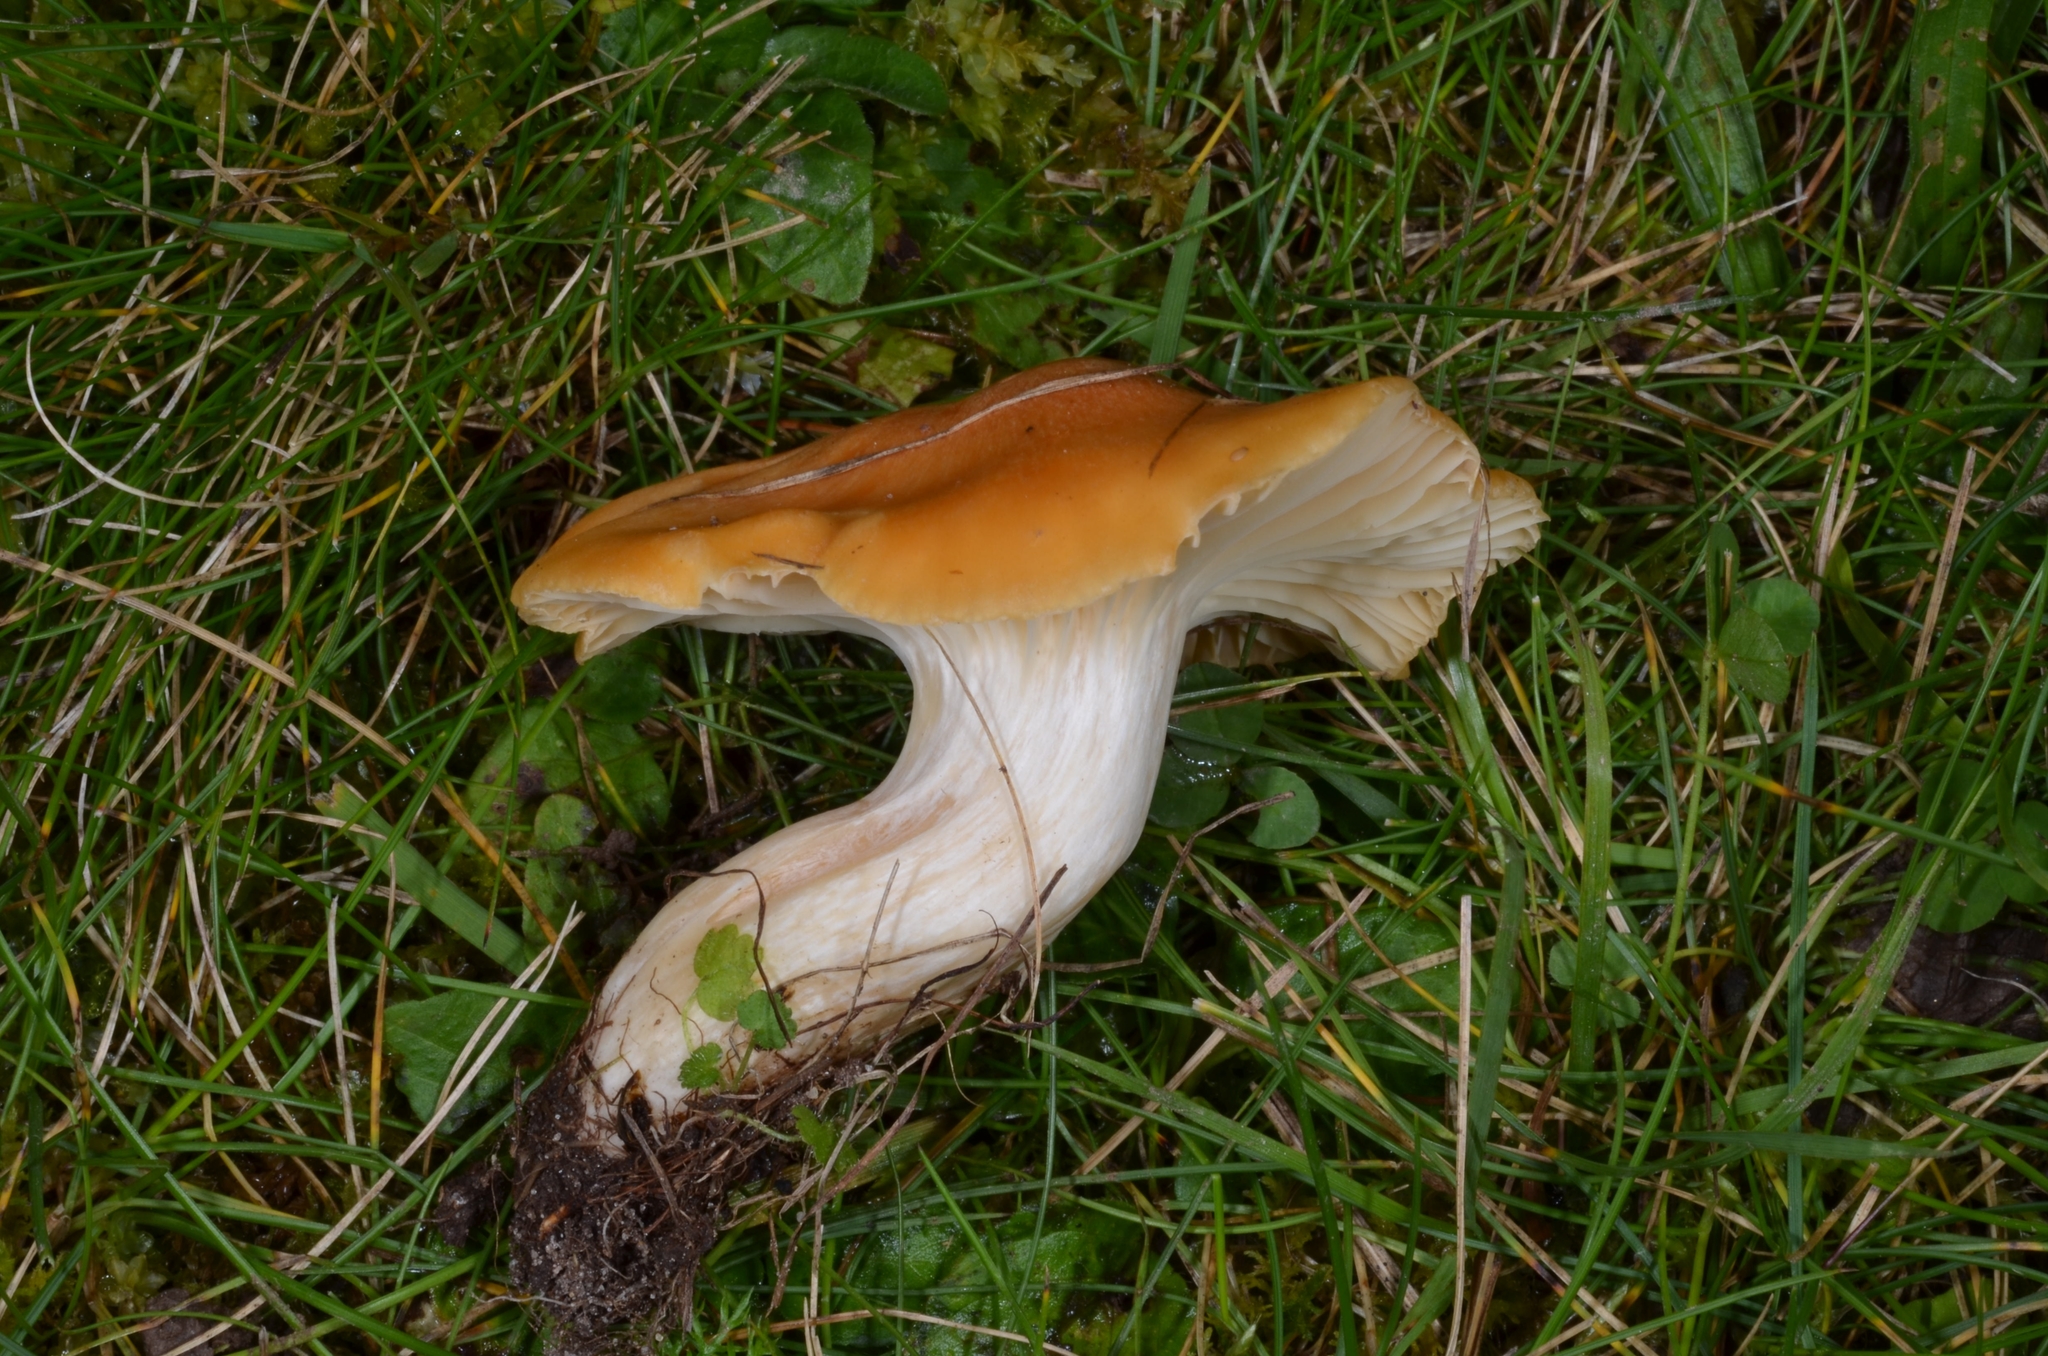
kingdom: Fungi
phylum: Basidiomycota
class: Agaricomycetes
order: Agaricales
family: Hygrophoraceae
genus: Cuphophyllus
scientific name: Cuphophyllus pratensis
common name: Meadow waxcap
